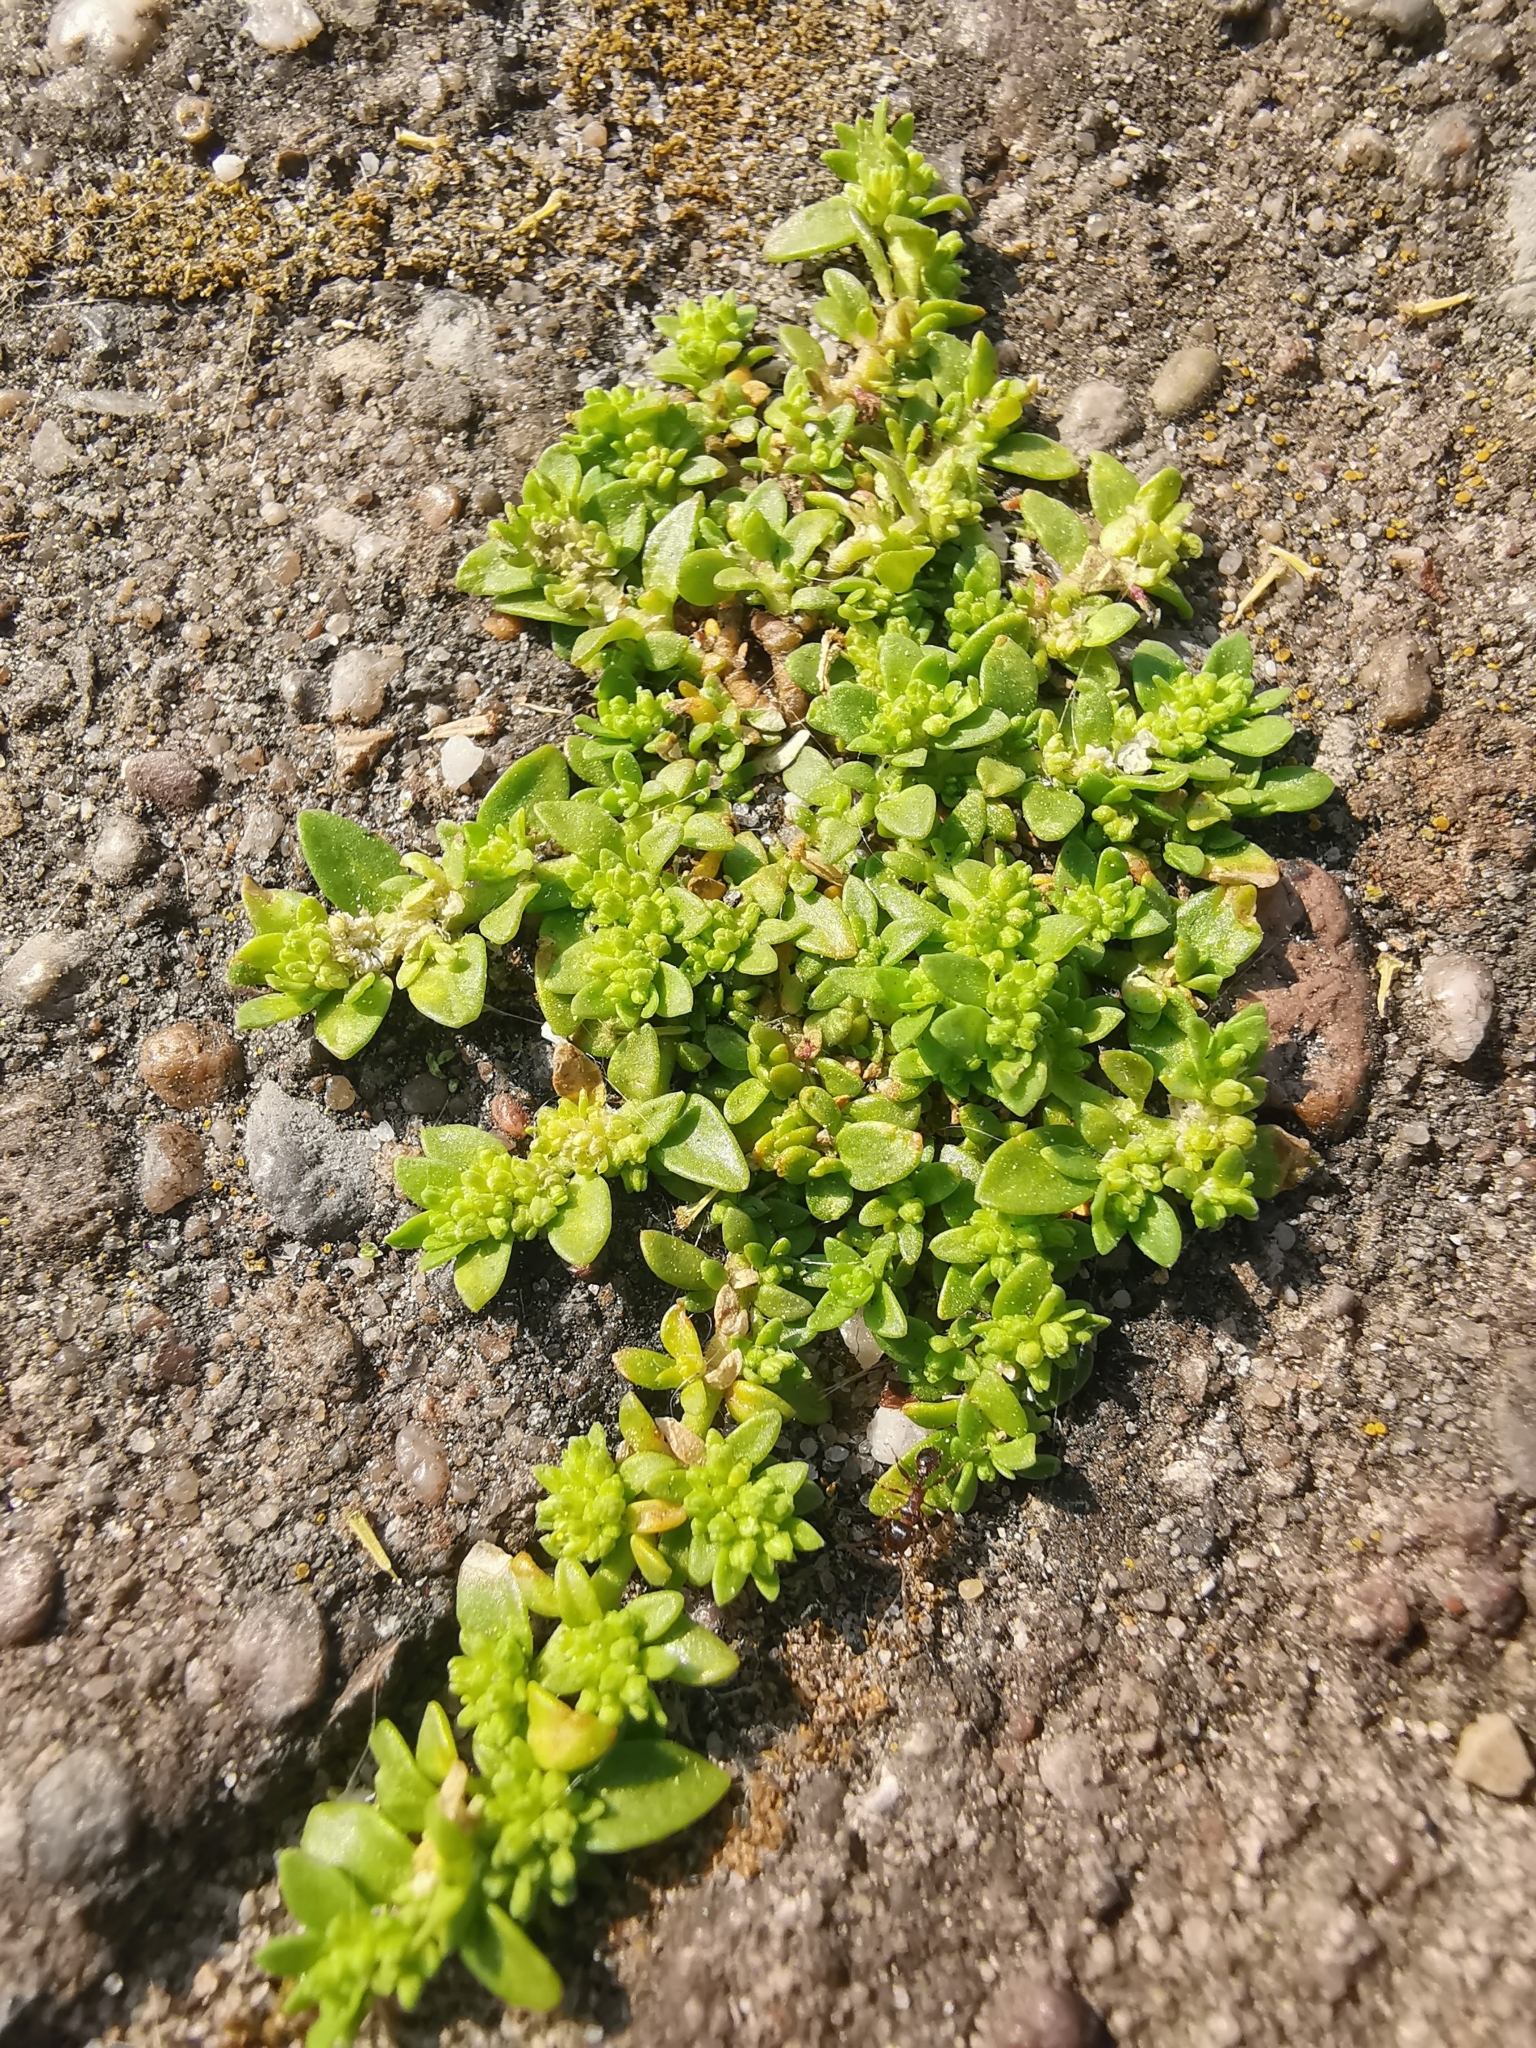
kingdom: Plantae
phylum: Tracheophyta
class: Magnoliopsida
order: Caryophyllales
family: Caryophyllaceae
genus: Herniaria
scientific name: Herniaria glabra
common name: Smooth rupturewort
